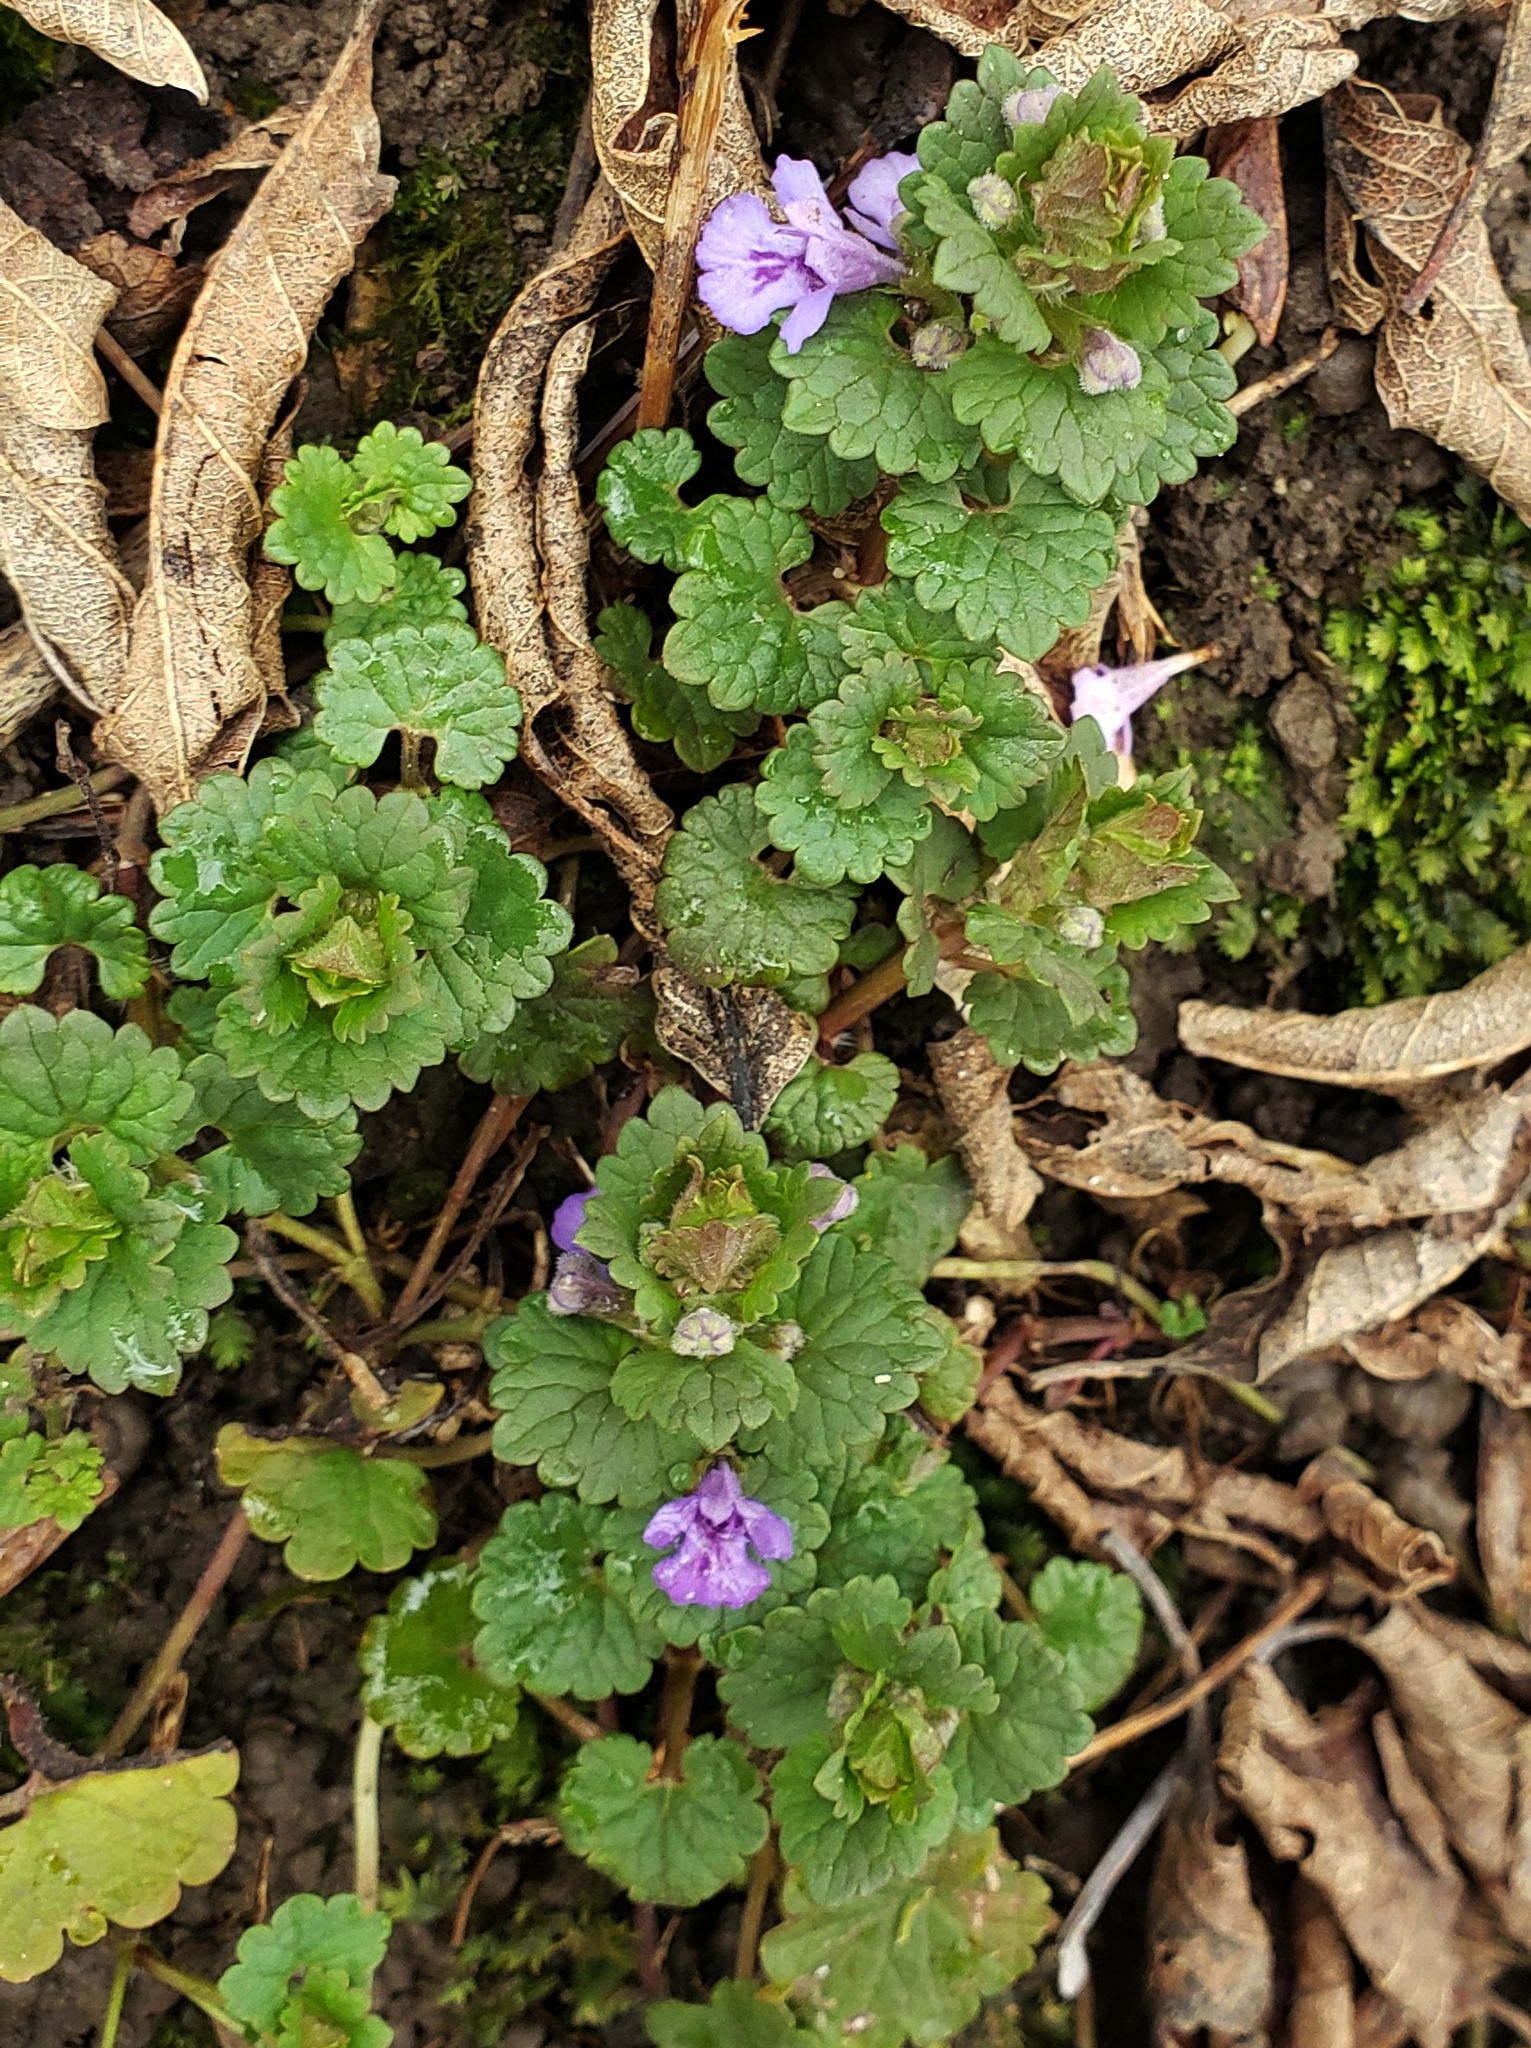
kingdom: Plantae
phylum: Tracheophyta
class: Magnoliopsida
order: Lamiales
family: Lamiaceae
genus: Glechoma
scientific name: Glechoma hederacea
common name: Ground ivy
